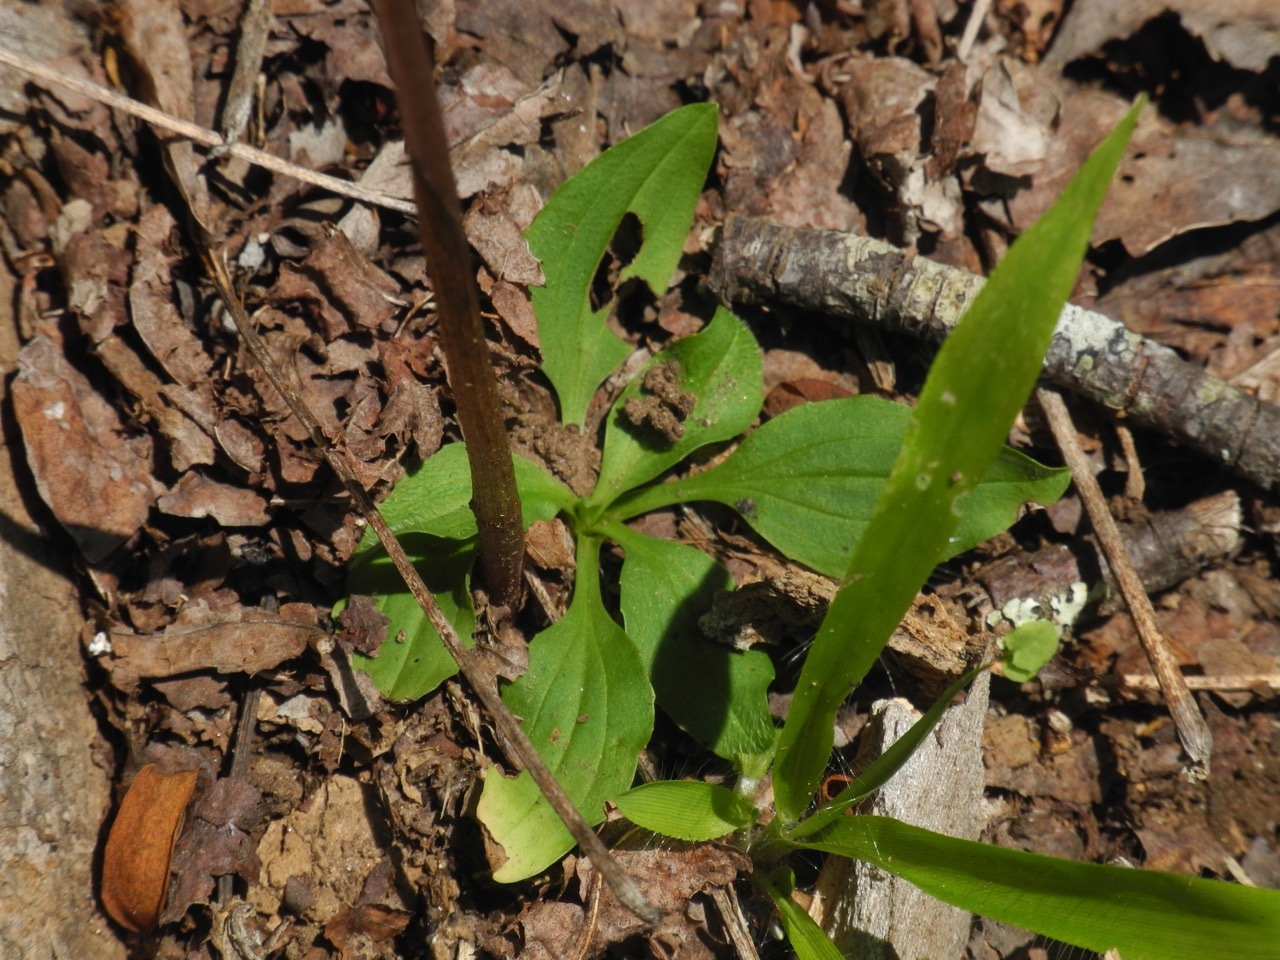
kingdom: Plantae
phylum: Tracheophyta
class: Liliopsida
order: Asparagales
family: Orchidaceae
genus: Tipularia
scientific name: Tipularia discolor
